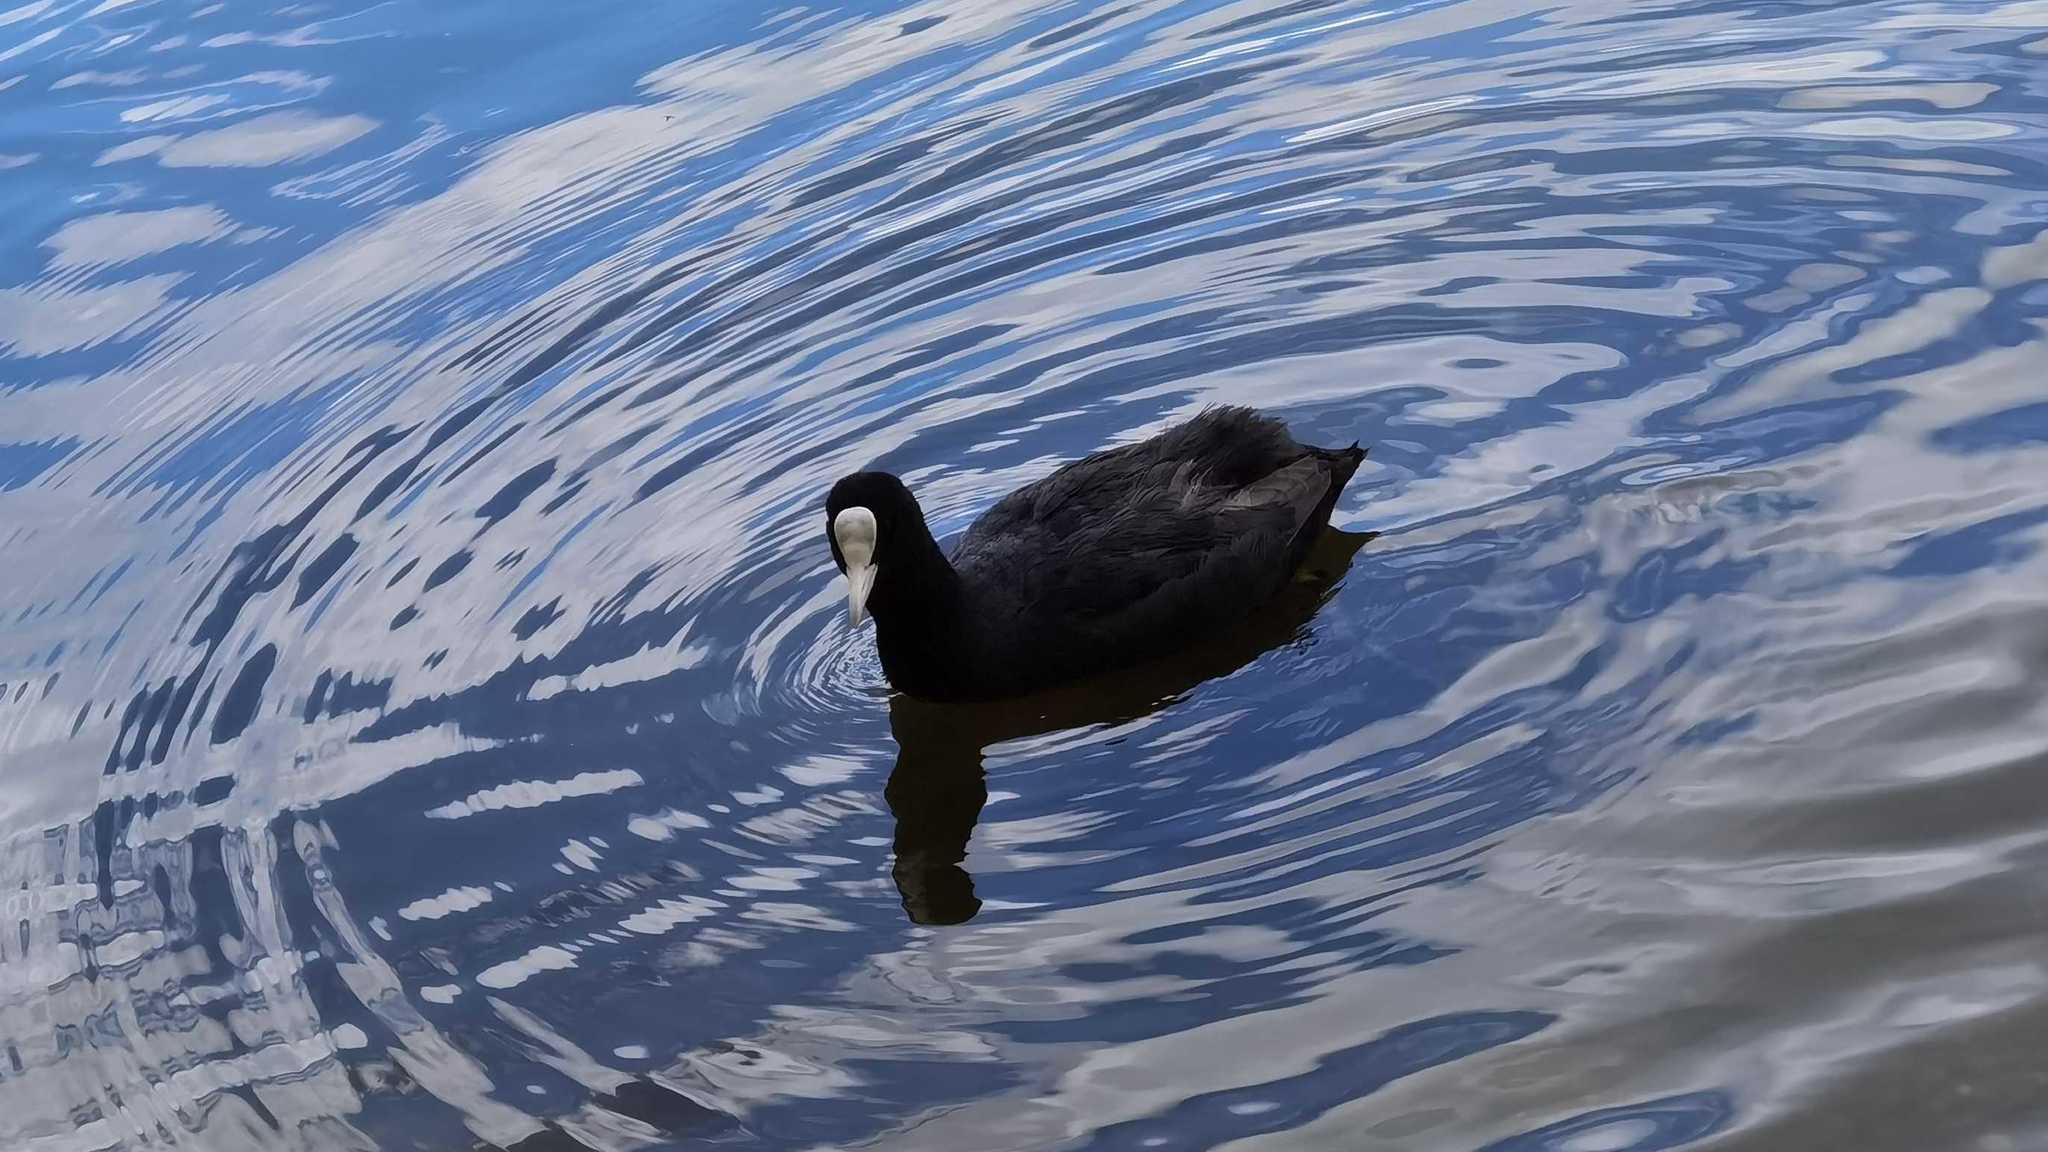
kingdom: Animalia
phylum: Chordata
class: Aves
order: Gruiformes
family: Rallidae
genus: Fulica
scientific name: Fulica atra
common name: Eurasian coot
